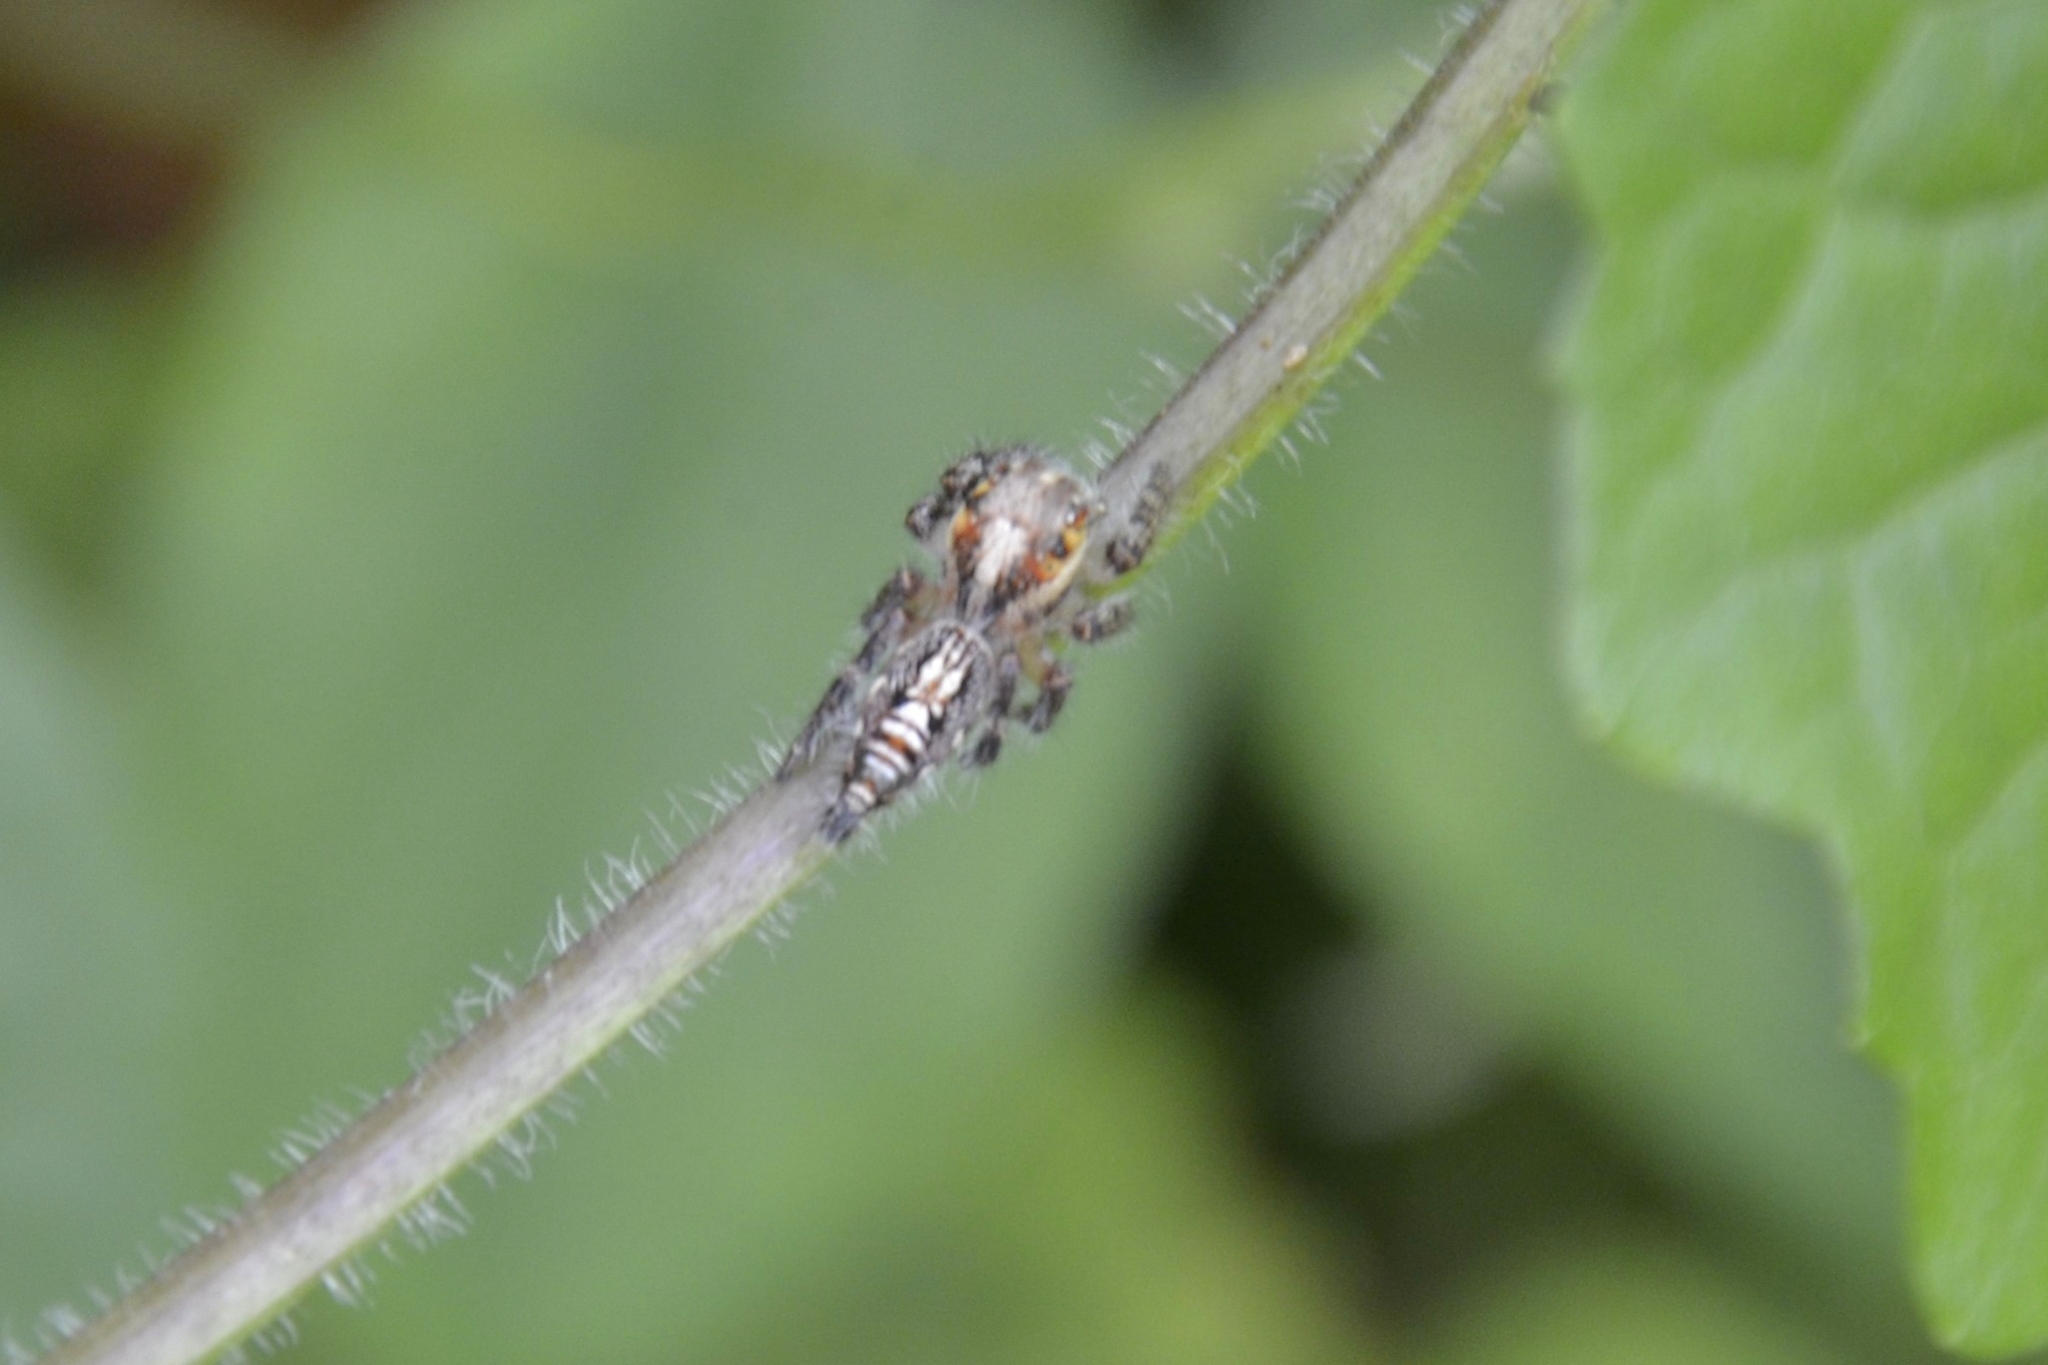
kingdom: Animalia
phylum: Arthropoda
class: Arachnida
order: Araneae
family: Salticidae
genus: Hyllus
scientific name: Hyllus semicupreus
